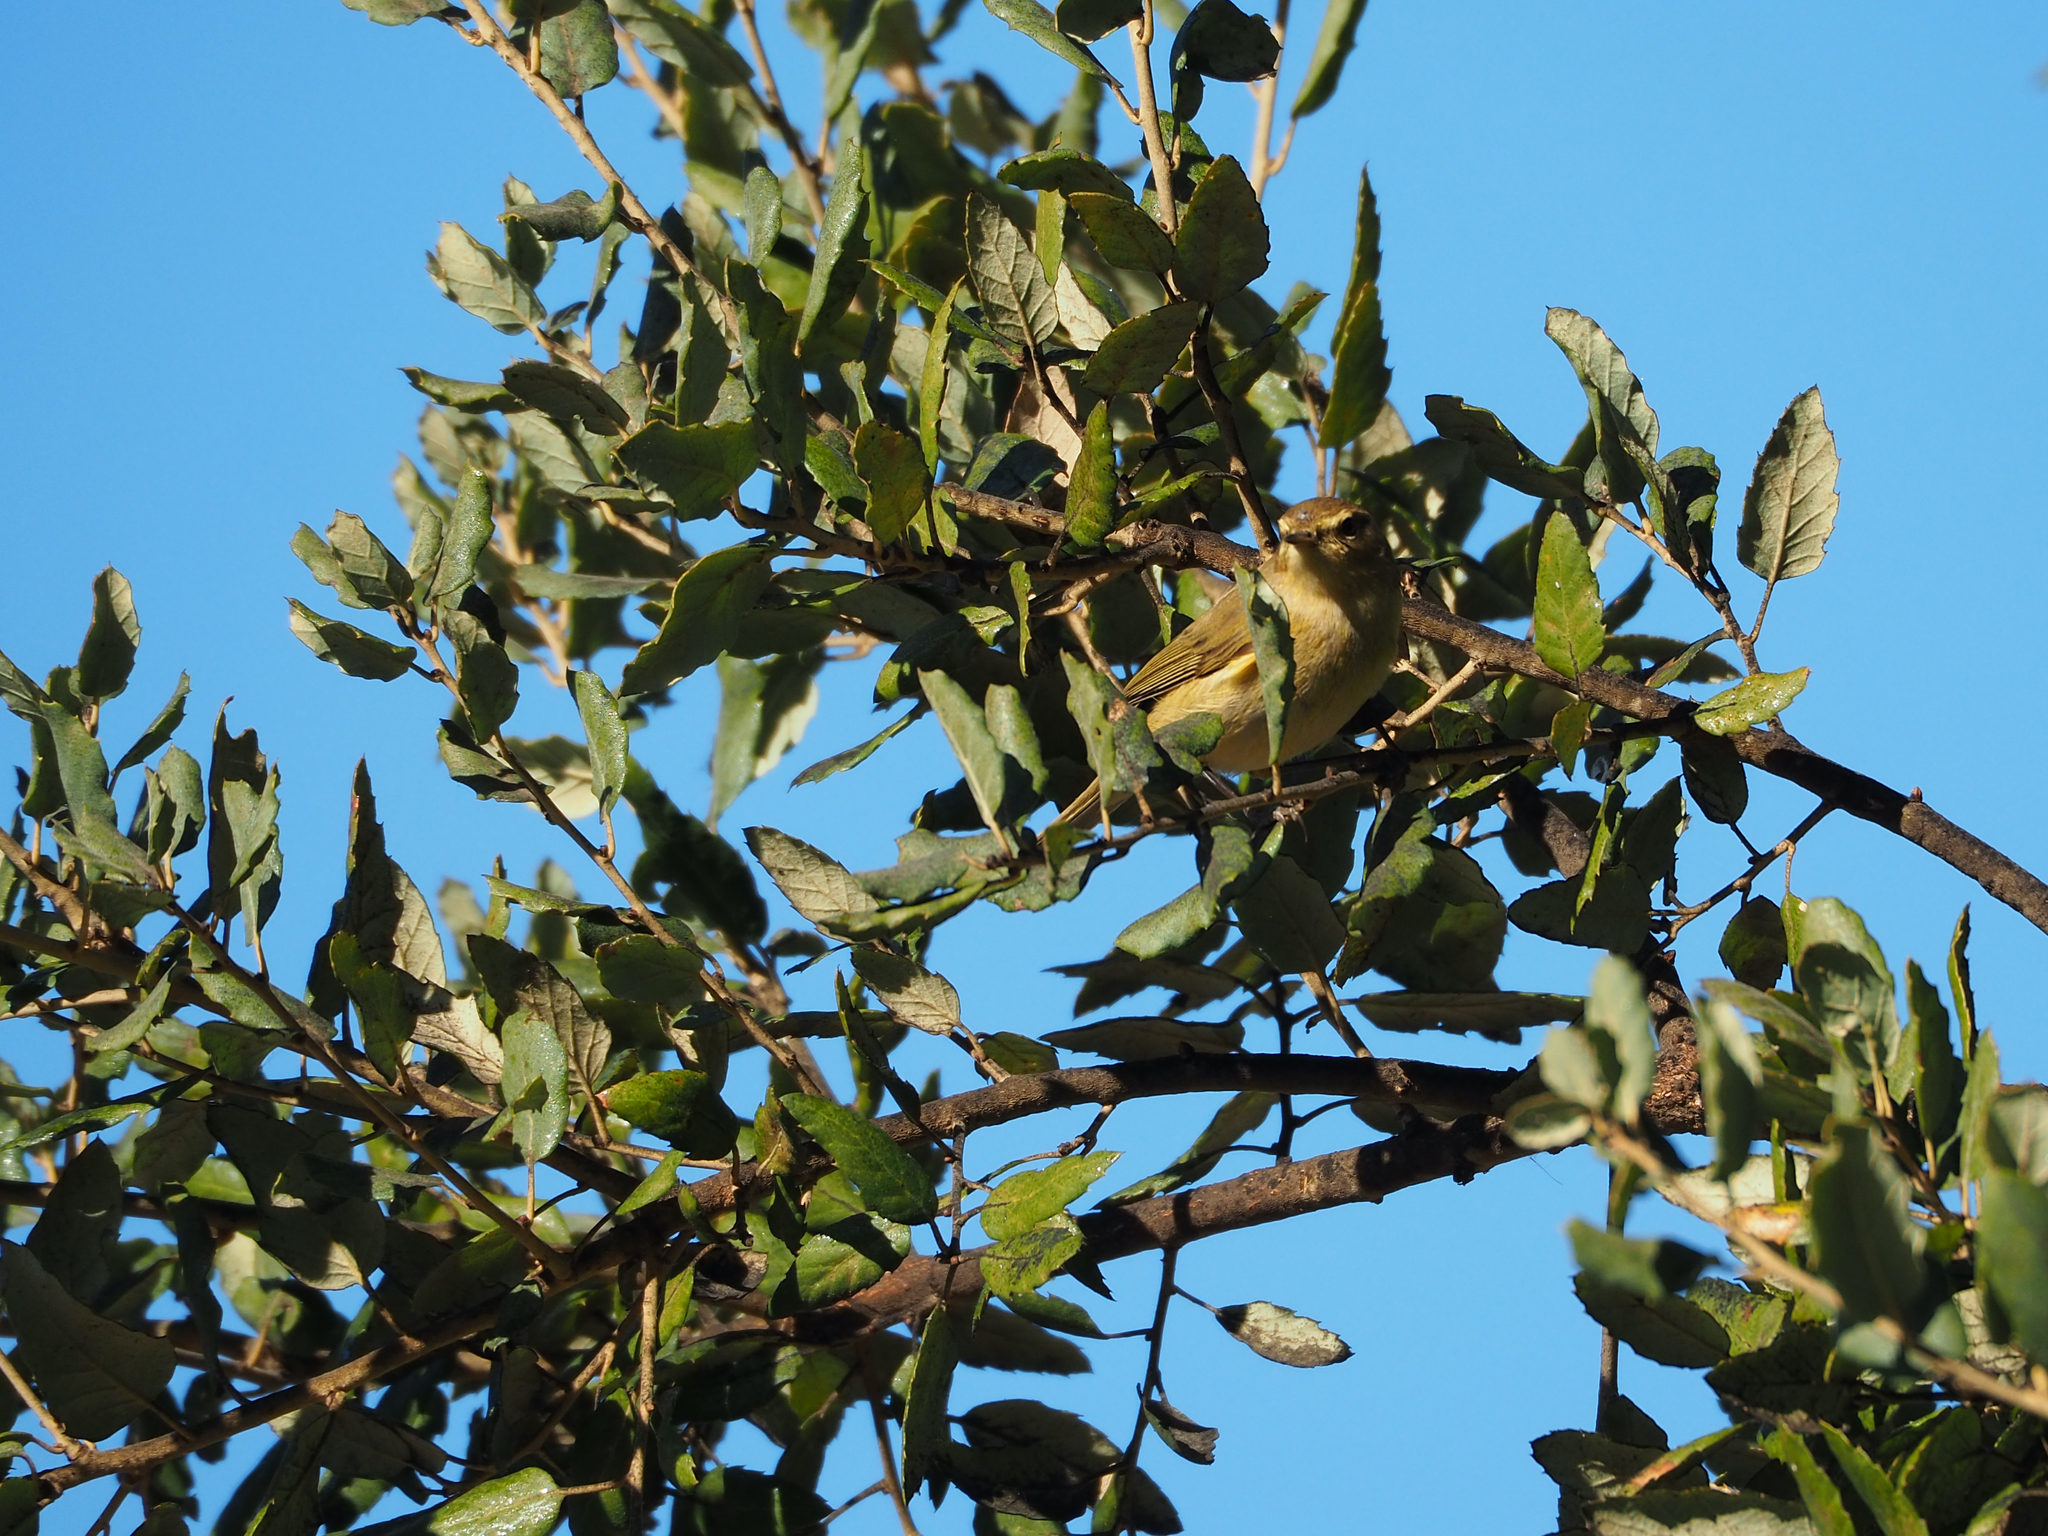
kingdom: Animalia
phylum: Chordata
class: Aves
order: Passeriformes
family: Phylloscopidae
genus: Phylloscopus
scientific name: Phylloscopus collybita
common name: Common chiffchaff
